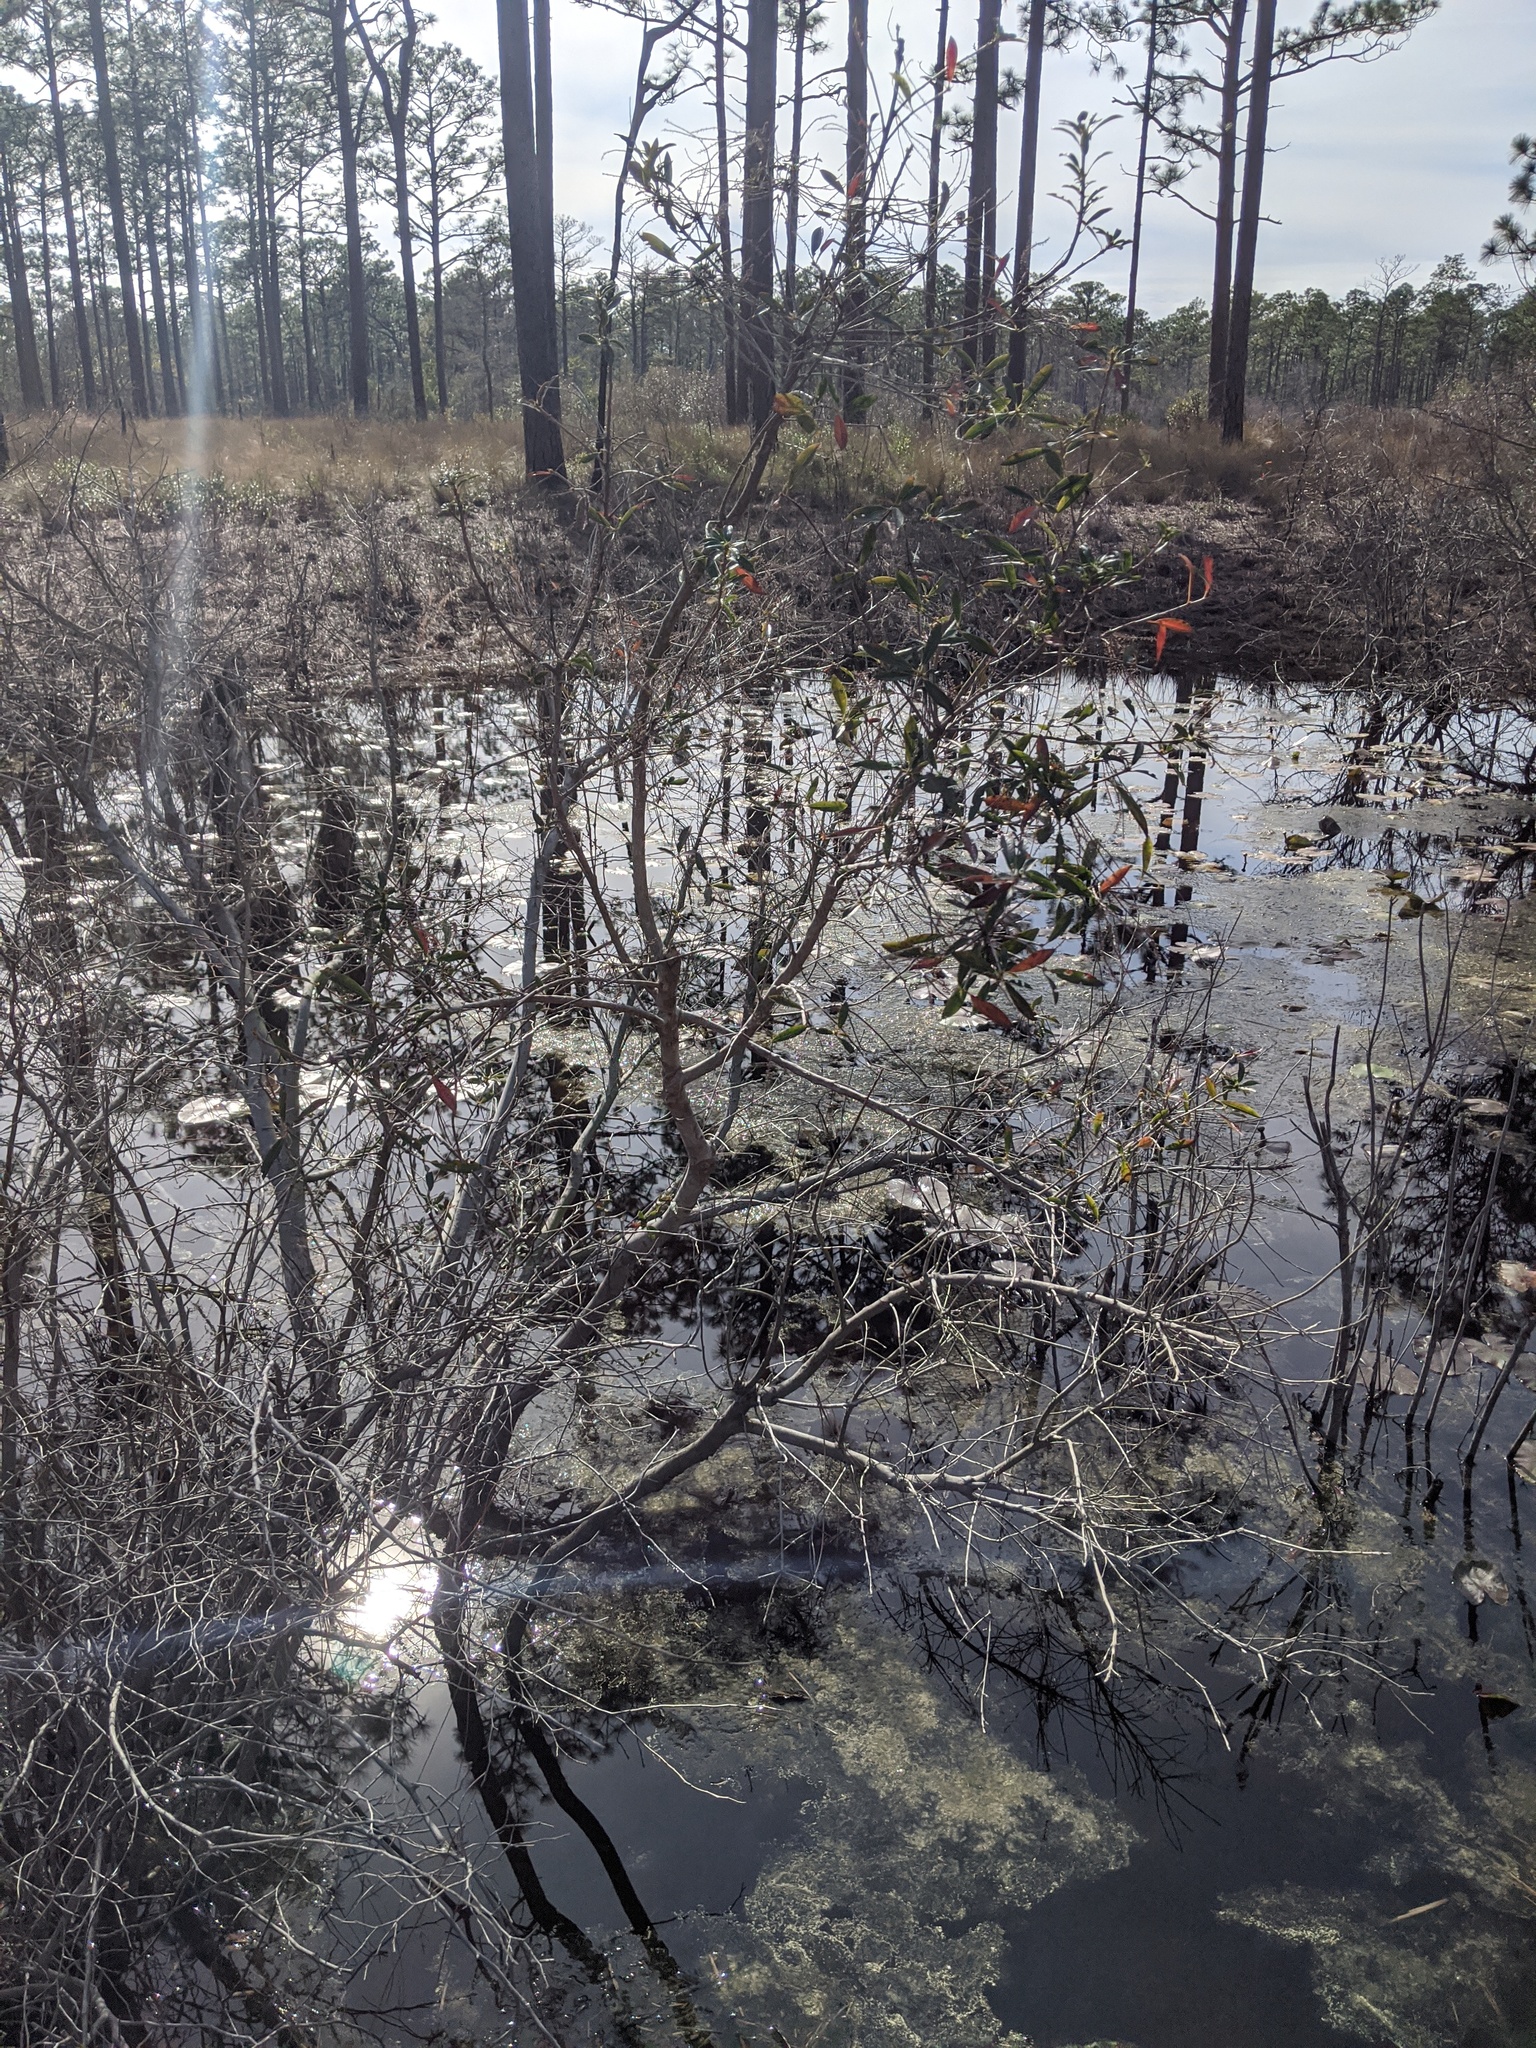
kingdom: Plantae
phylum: Tracheophyta
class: Magnoliopsida
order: Ericales
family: Cyrillaceae
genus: Cyrilla
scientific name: Cyrilla racemiflora
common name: Black titi
